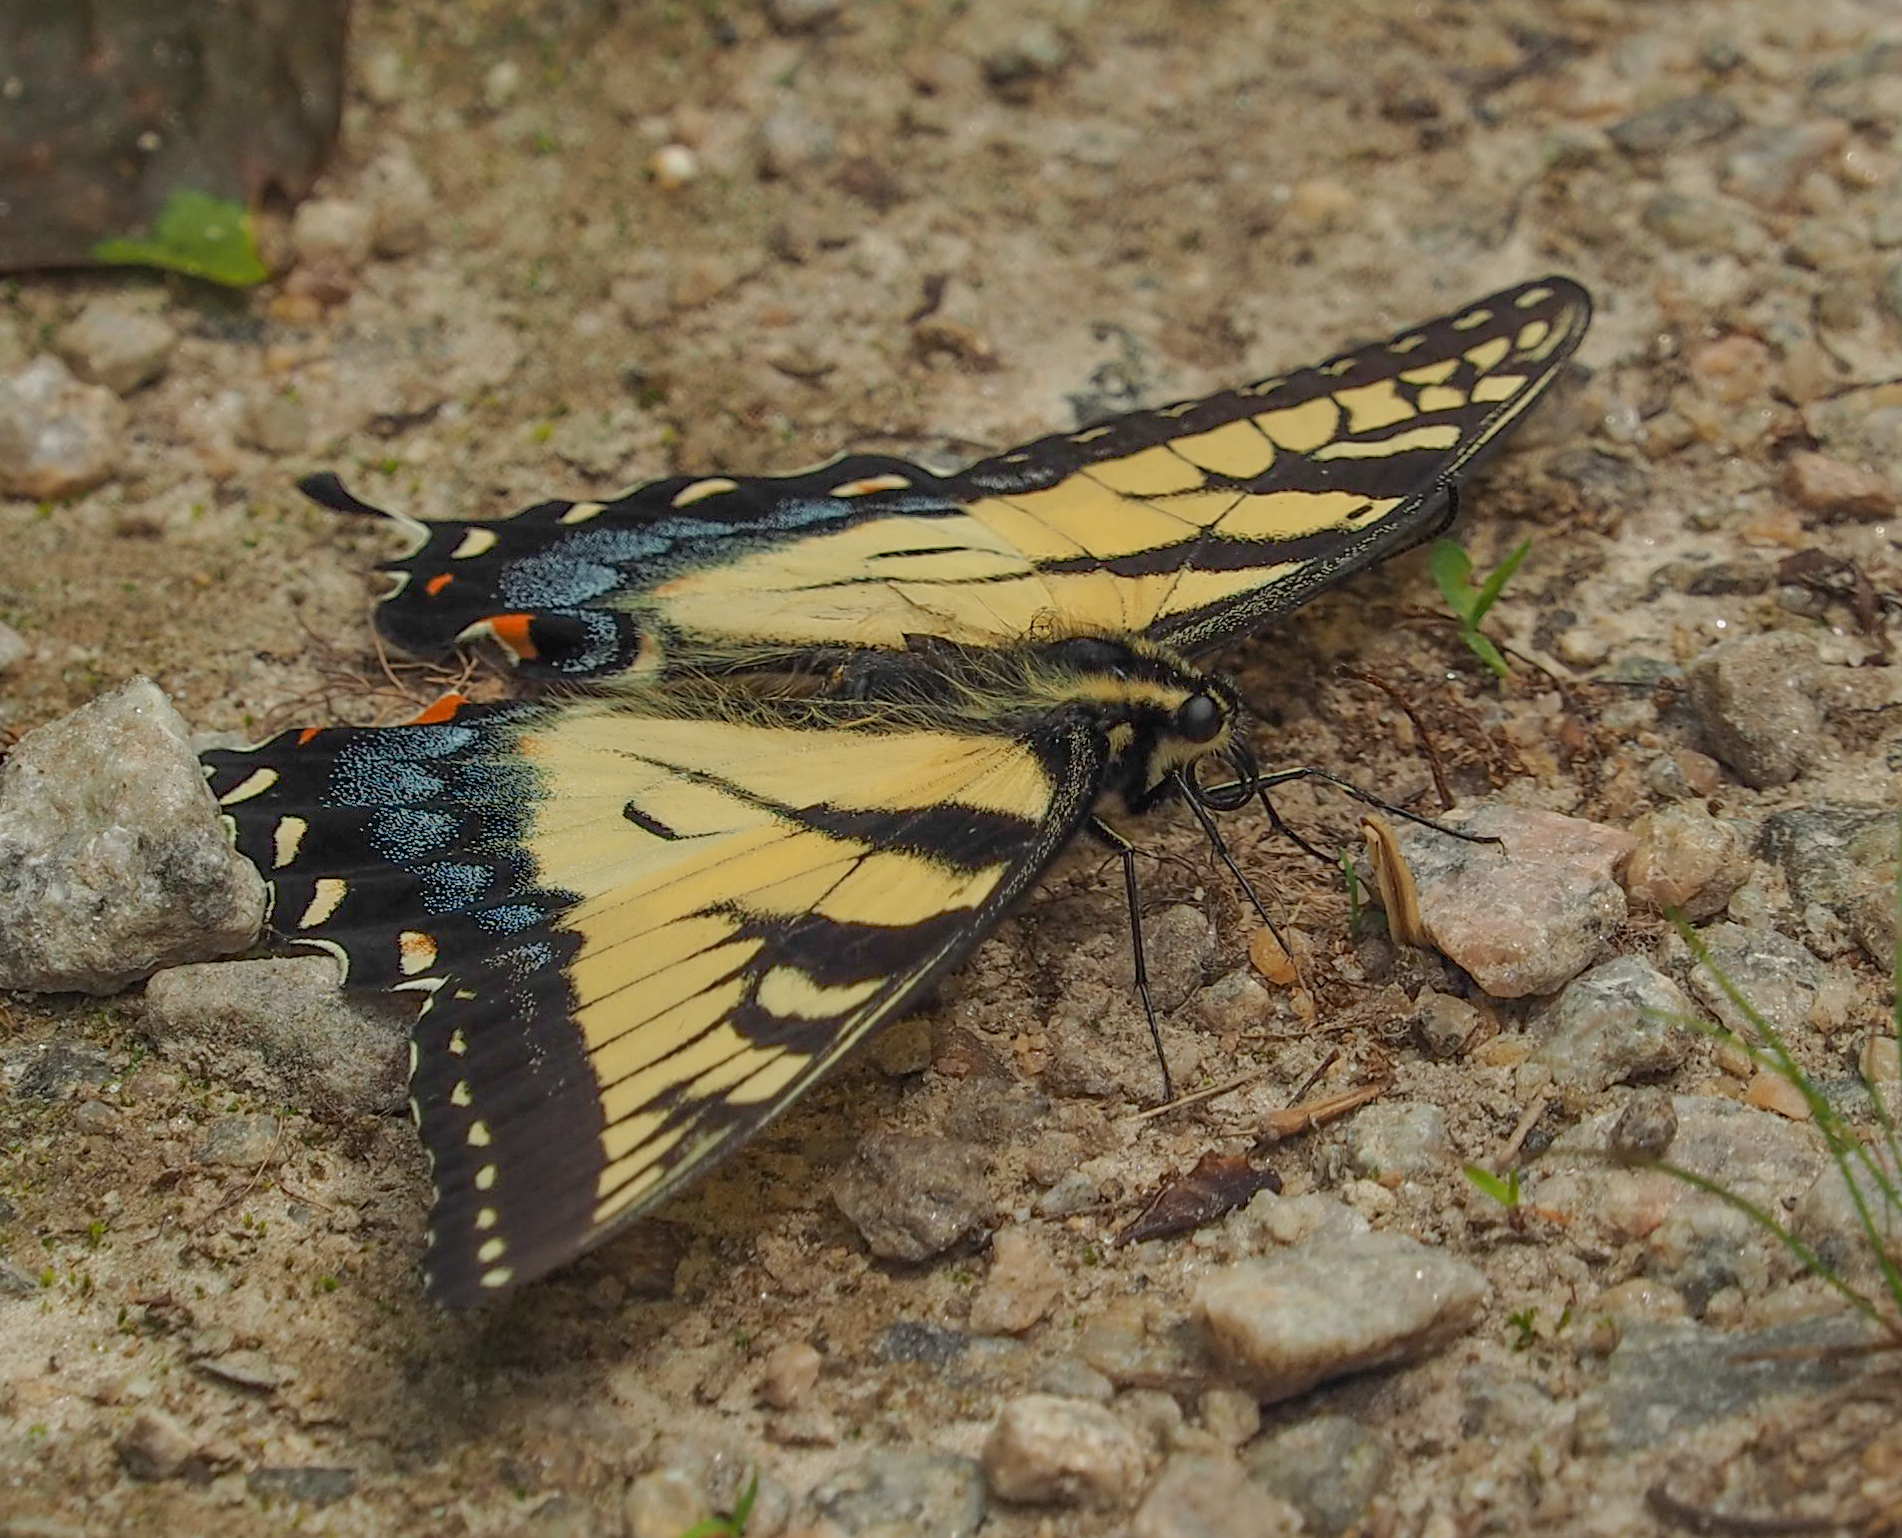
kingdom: Animalia
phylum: Arthropoda
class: Insecta
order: Lepidoptera
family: Papilionidae
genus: Papilio
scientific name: Papilio glaucus
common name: Tiger swallowtail
